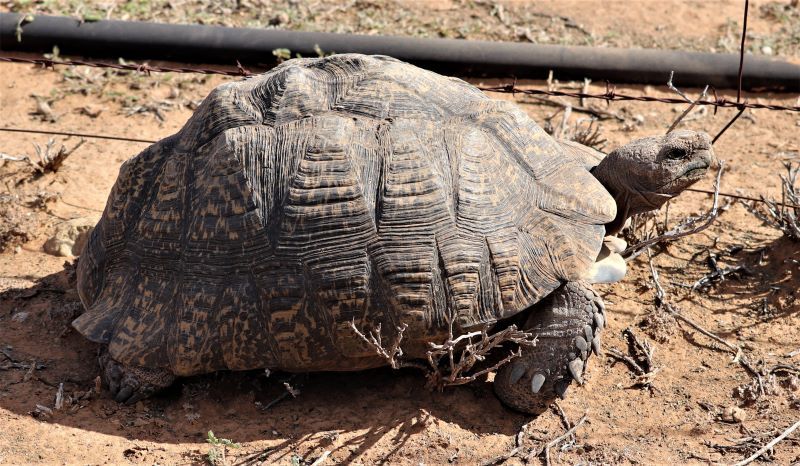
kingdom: Animalia
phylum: Chordata
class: Testudines
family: Testudinidae
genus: Stigmochelys
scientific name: Stigmochelys pardalis
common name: Leopard tortoise
